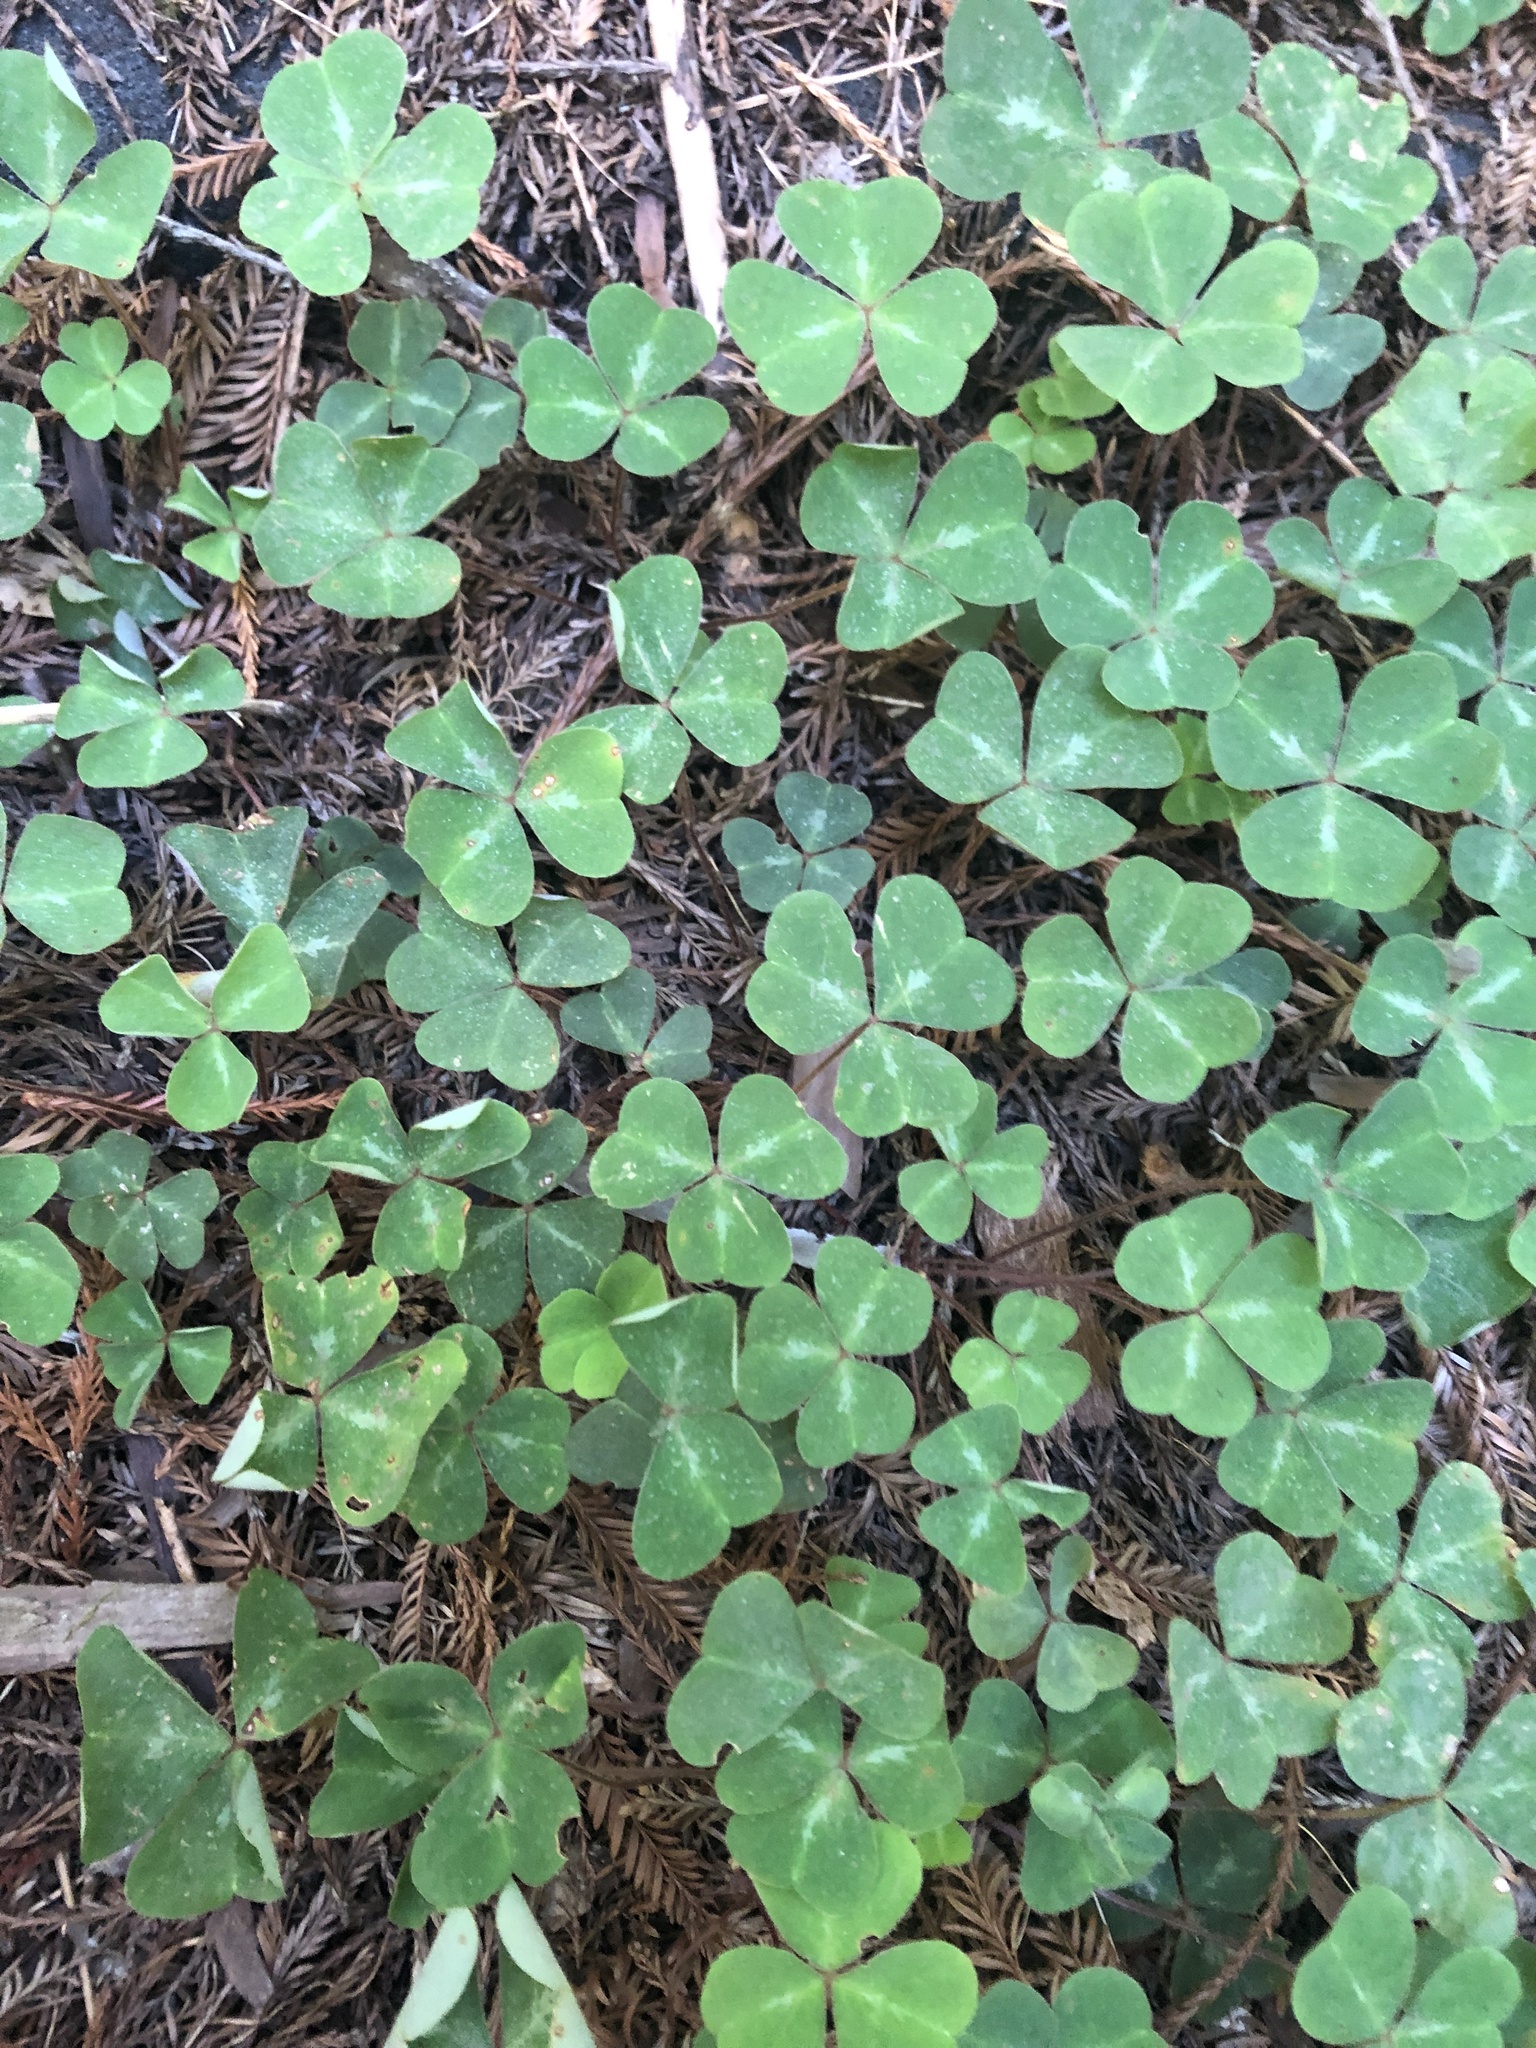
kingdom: Plantae
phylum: Tracheophyta
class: Magnoliopsida
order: Oxalidales
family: Oxalidaceae
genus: Oxalis
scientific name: Oxalis oregana
